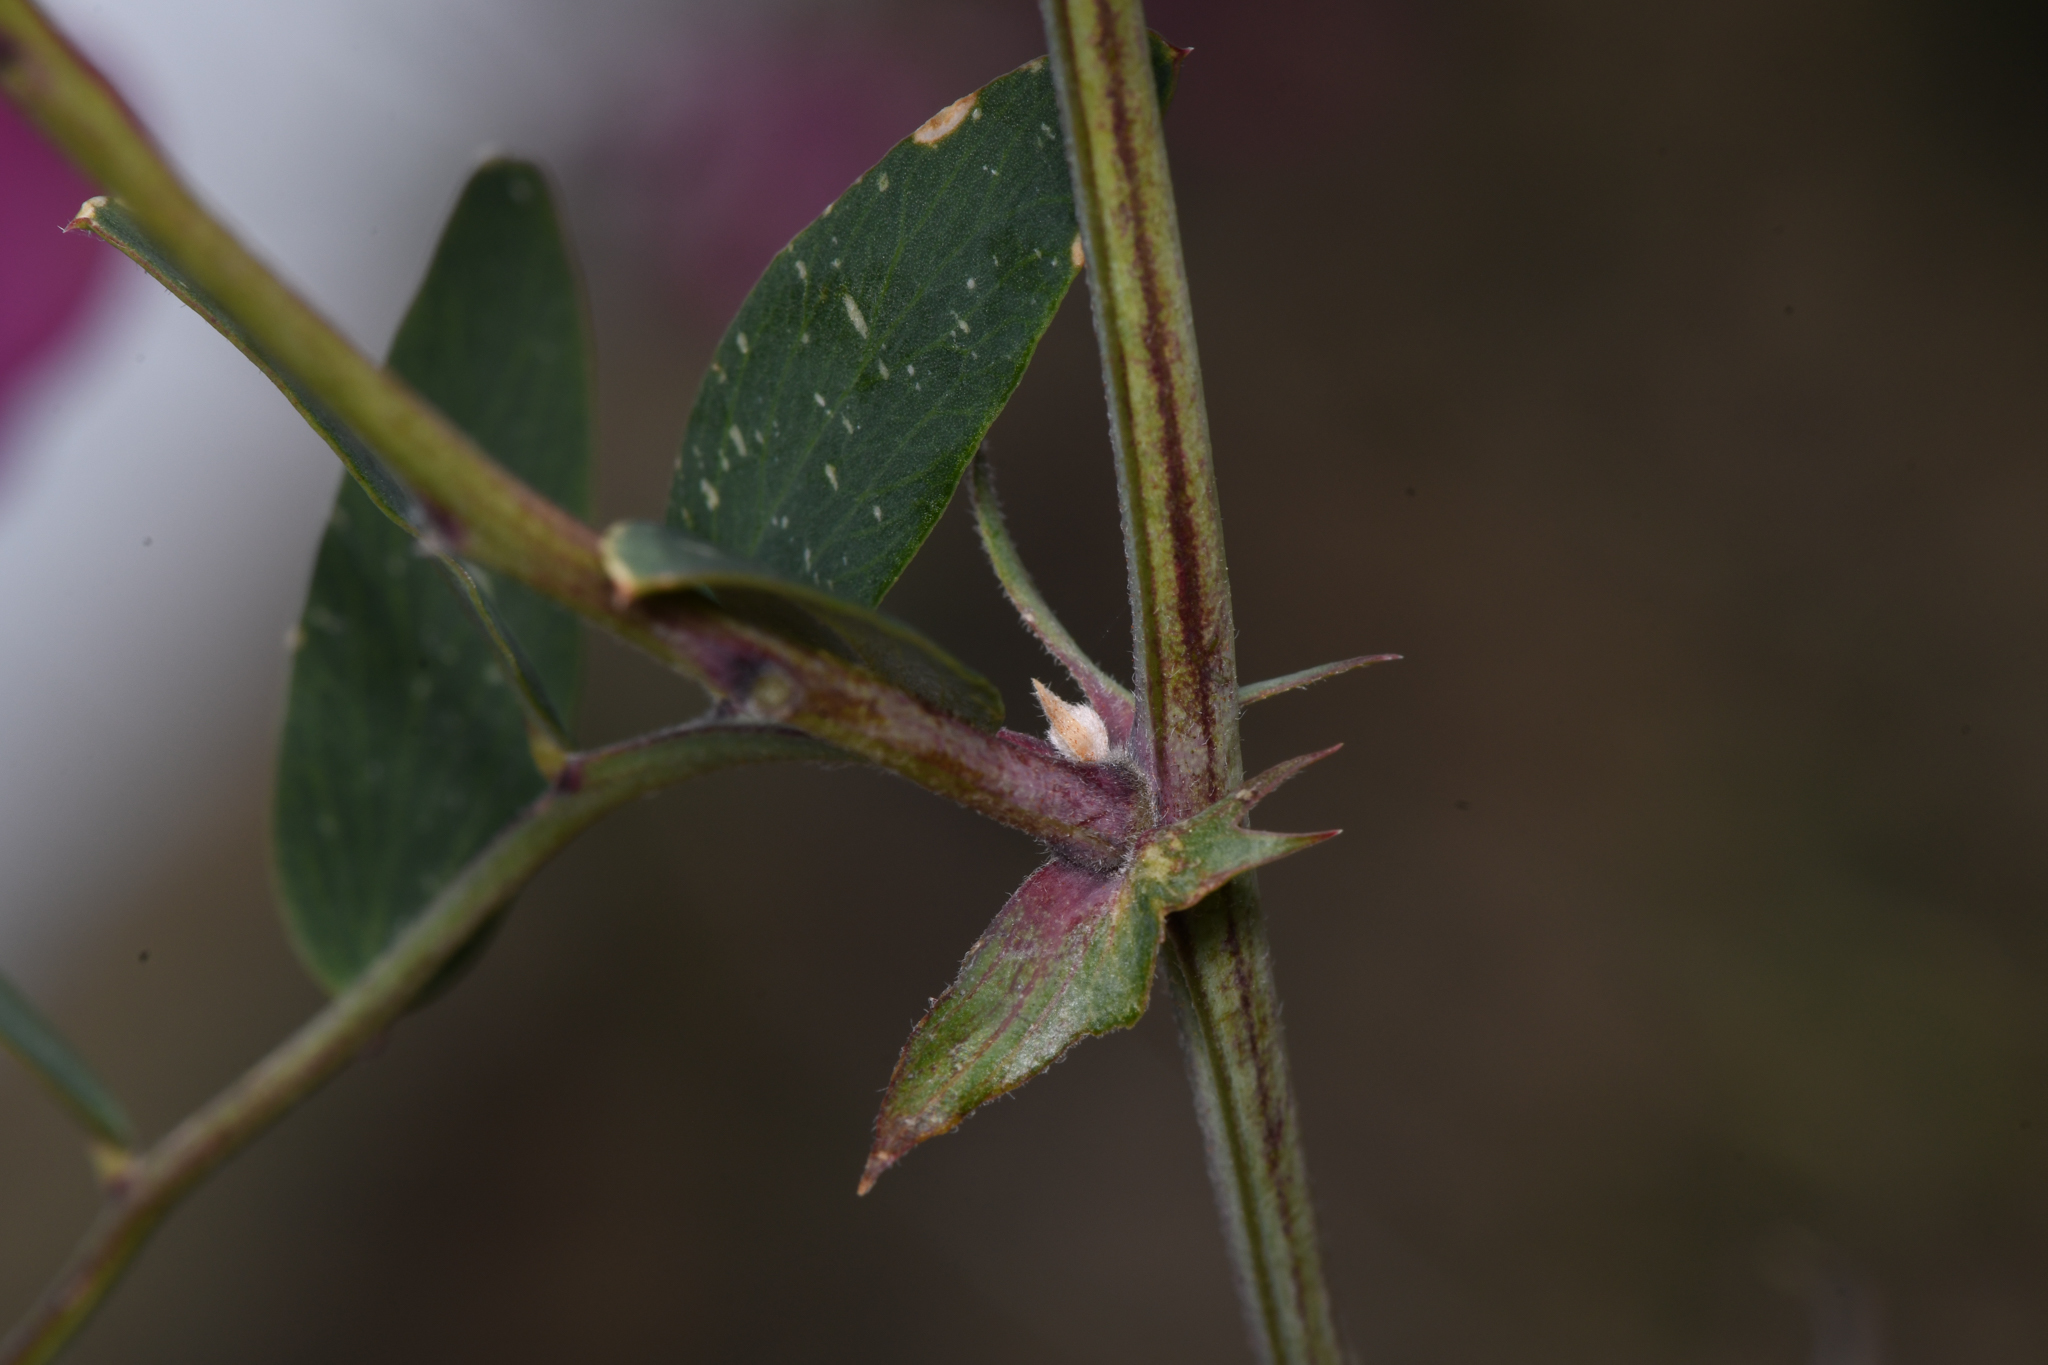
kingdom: Plantae
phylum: Tracheophyta
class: Magnoliopsida
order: Fabales
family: Fabaceae
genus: Lathyrus
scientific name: Lathyrus vestitus
